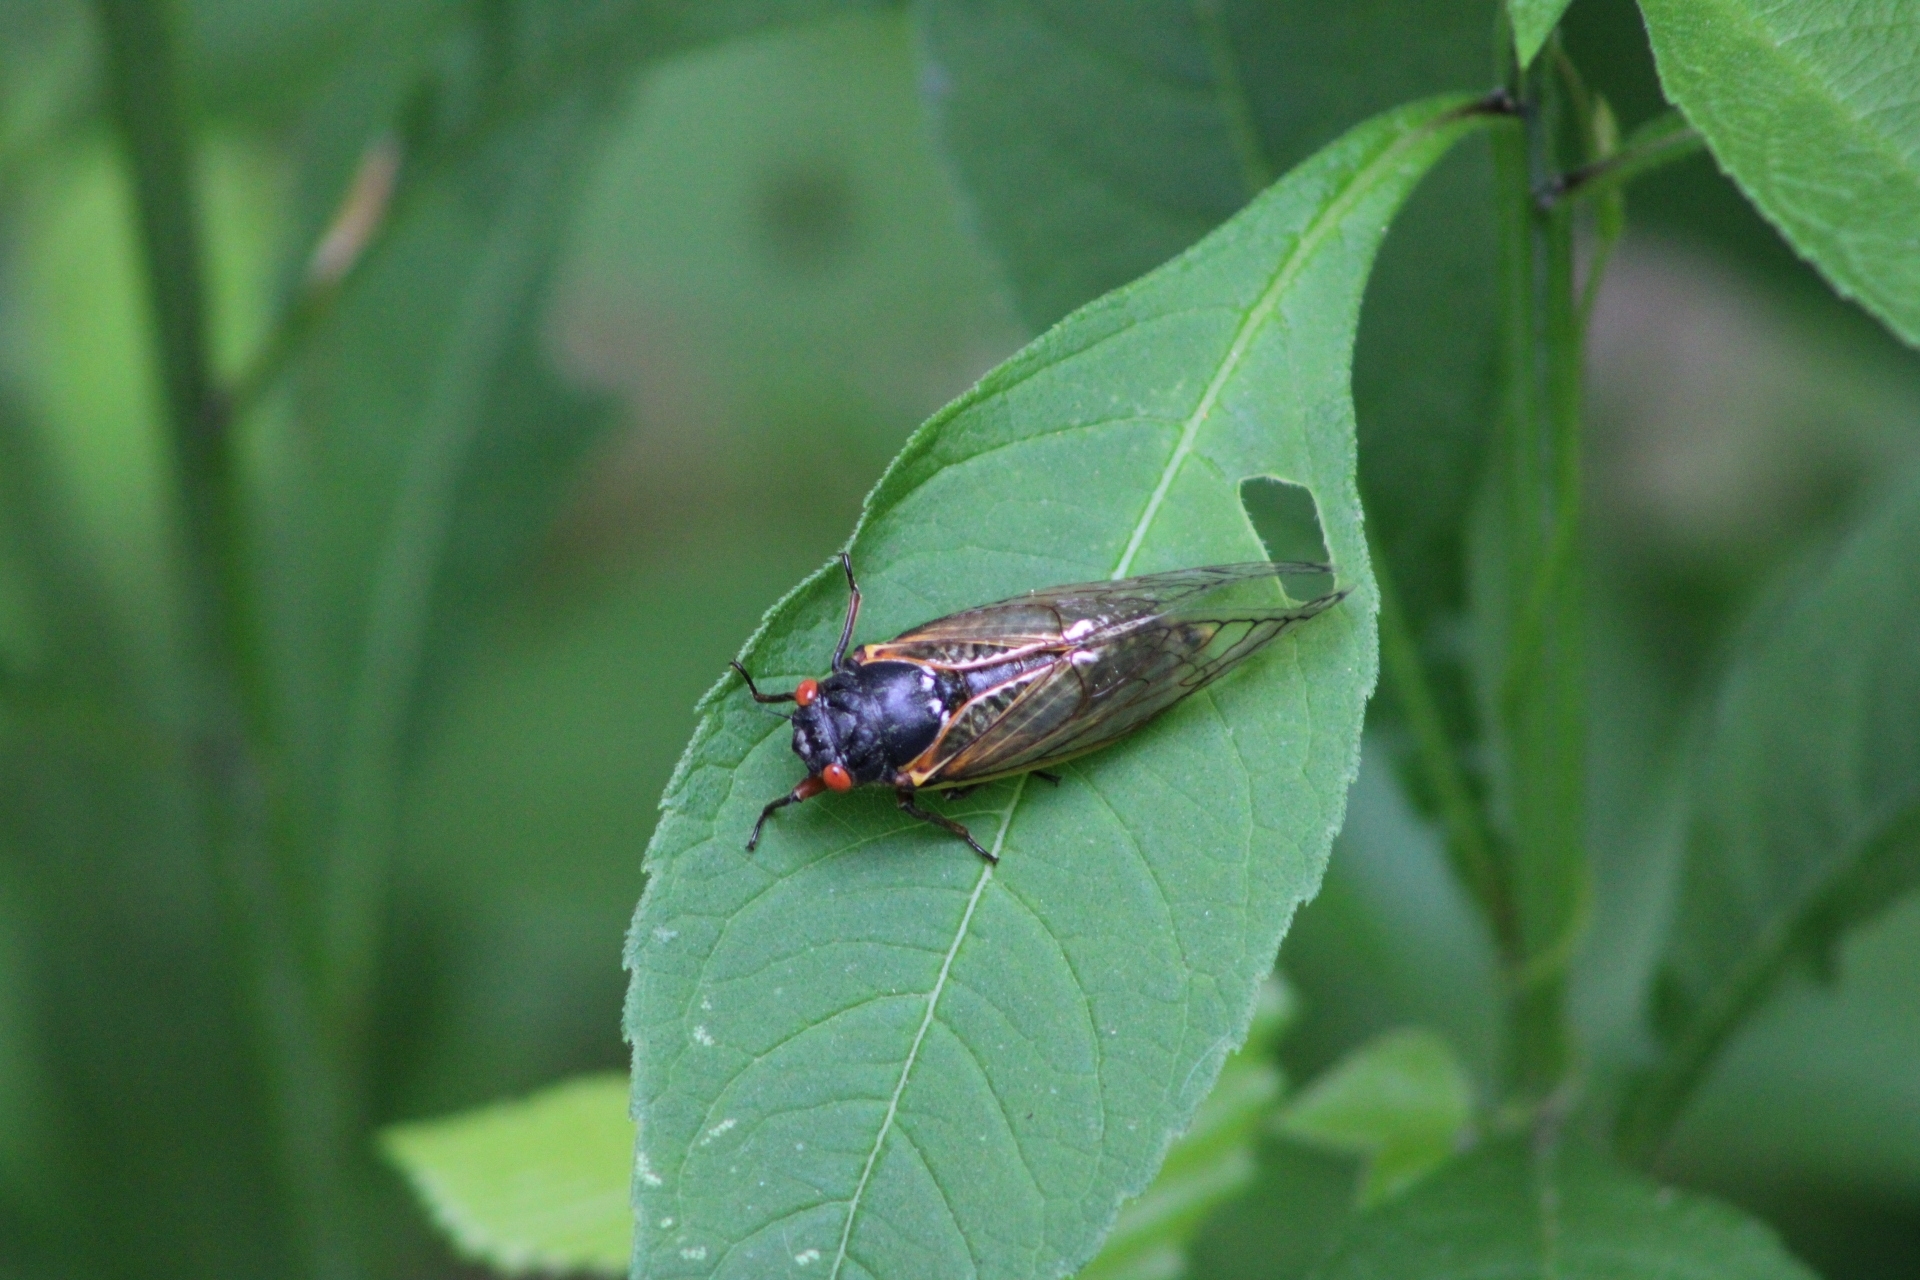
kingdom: Animalia
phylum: Arthropoda
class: Insecta
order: Hemiptera
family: Cicadidae
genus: Magicicada
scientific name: Magicicada
